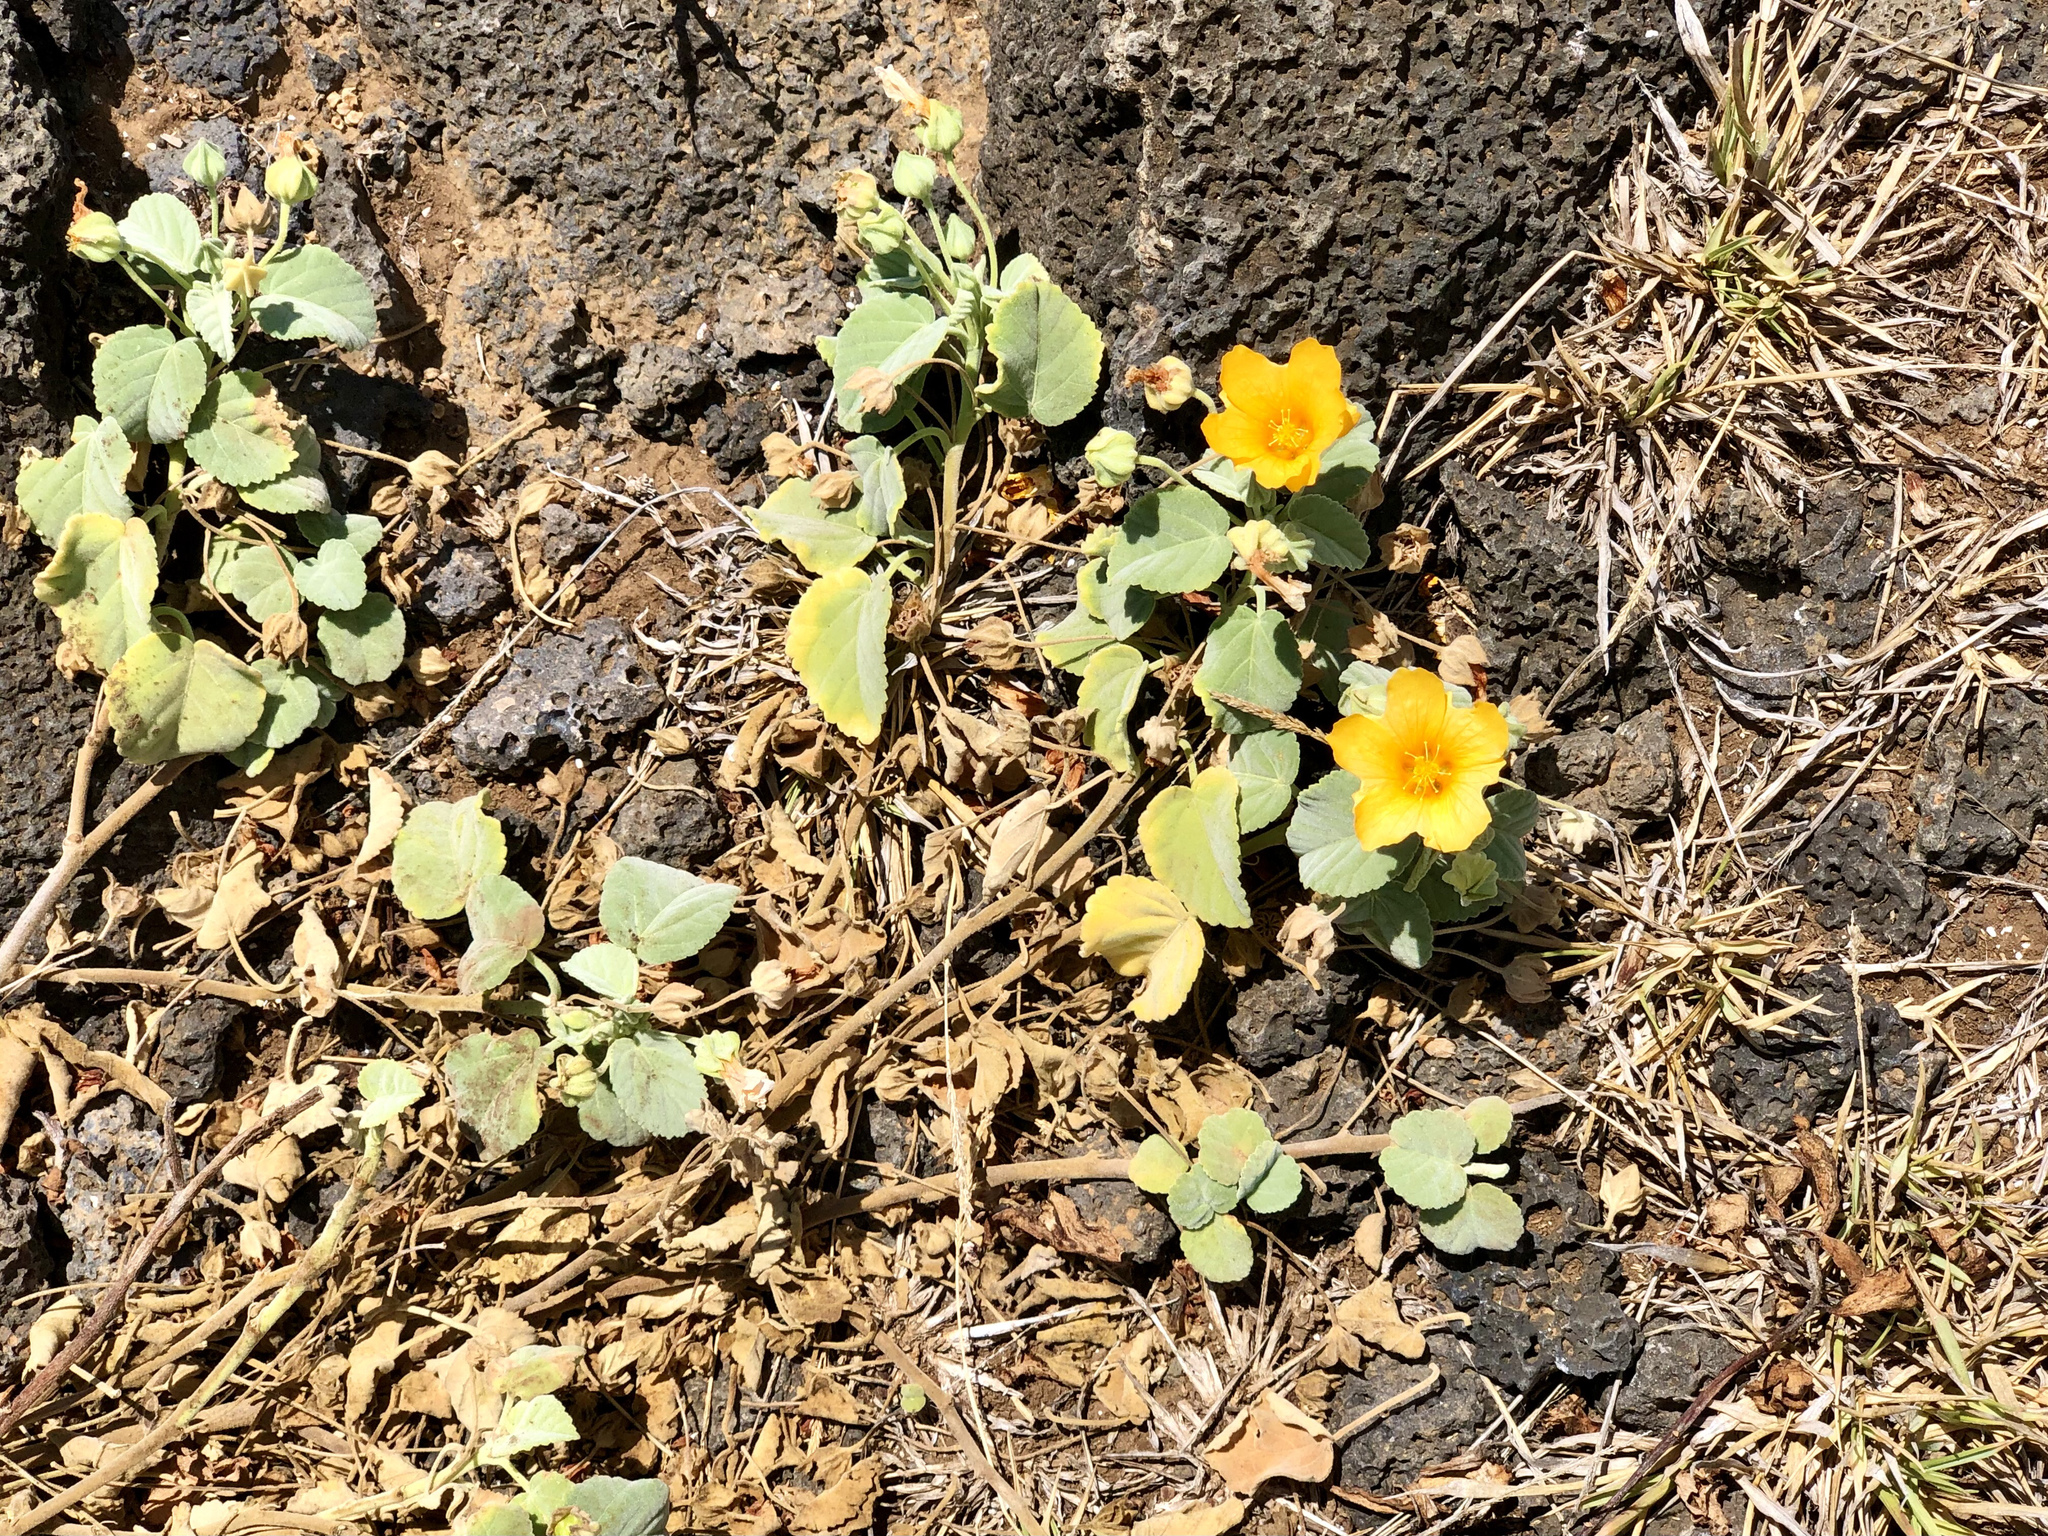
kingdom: Plantae
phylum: Tracheophyta
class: Magnoliopsida
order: Malvales
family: Malvaceae
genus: Sida
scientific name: Sida fallax
